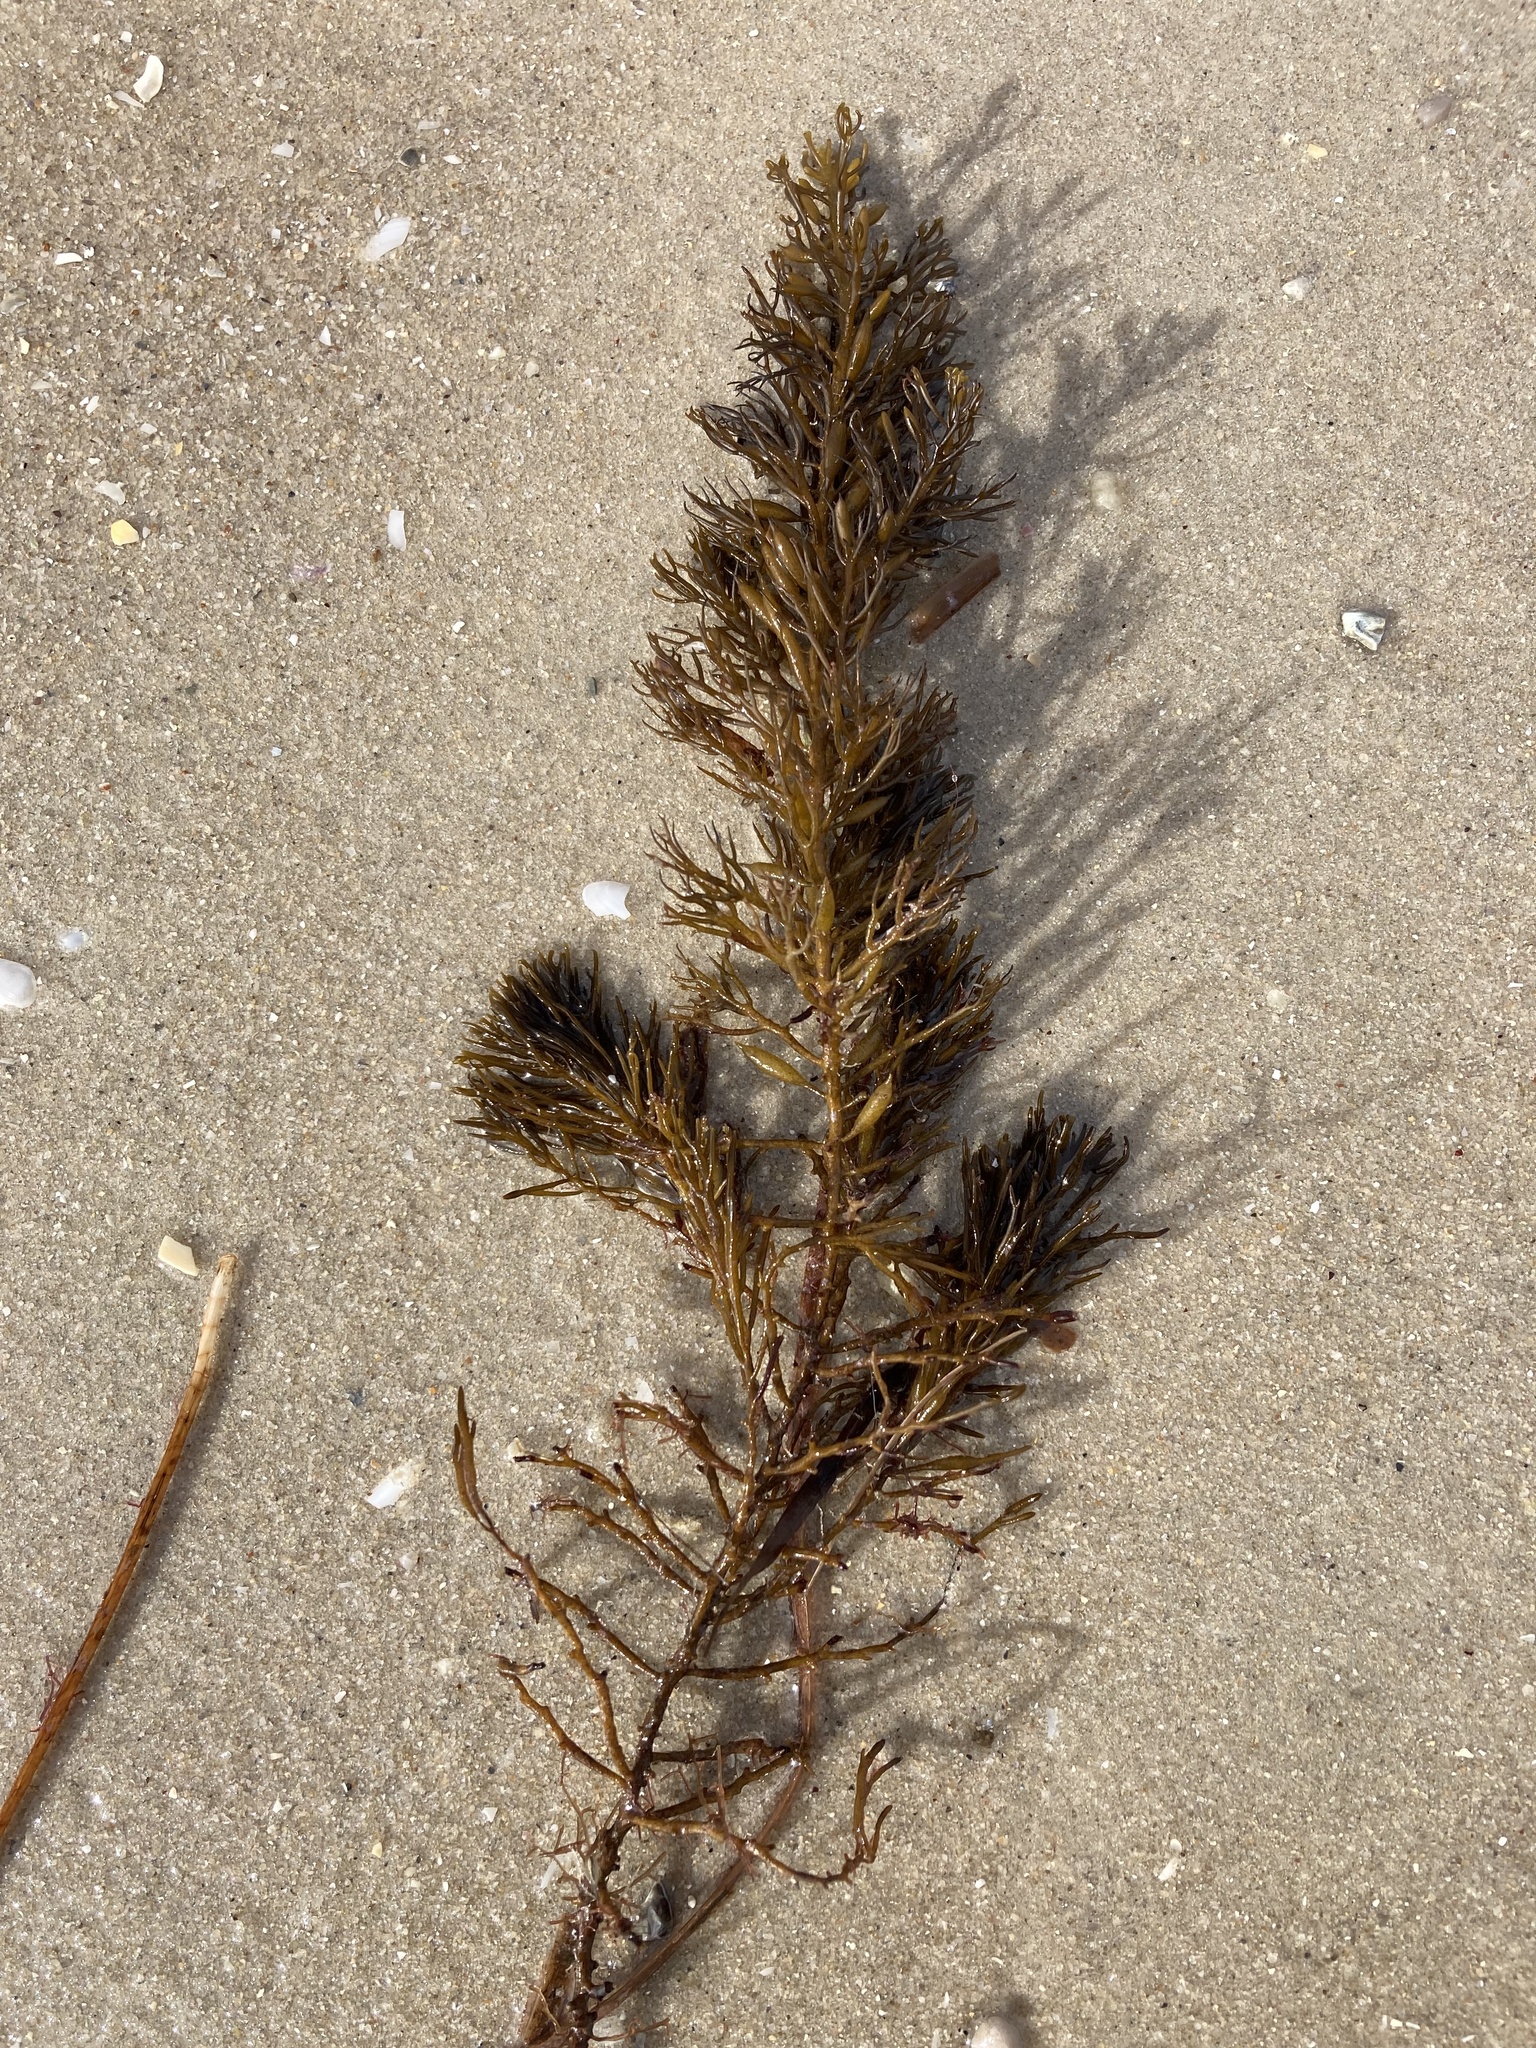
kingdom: Chromista
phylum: Ochrophyta
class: Phaeophyceae
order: Fucales
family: Sargassaceae
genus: Caulocystis
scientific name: Caulocystis
